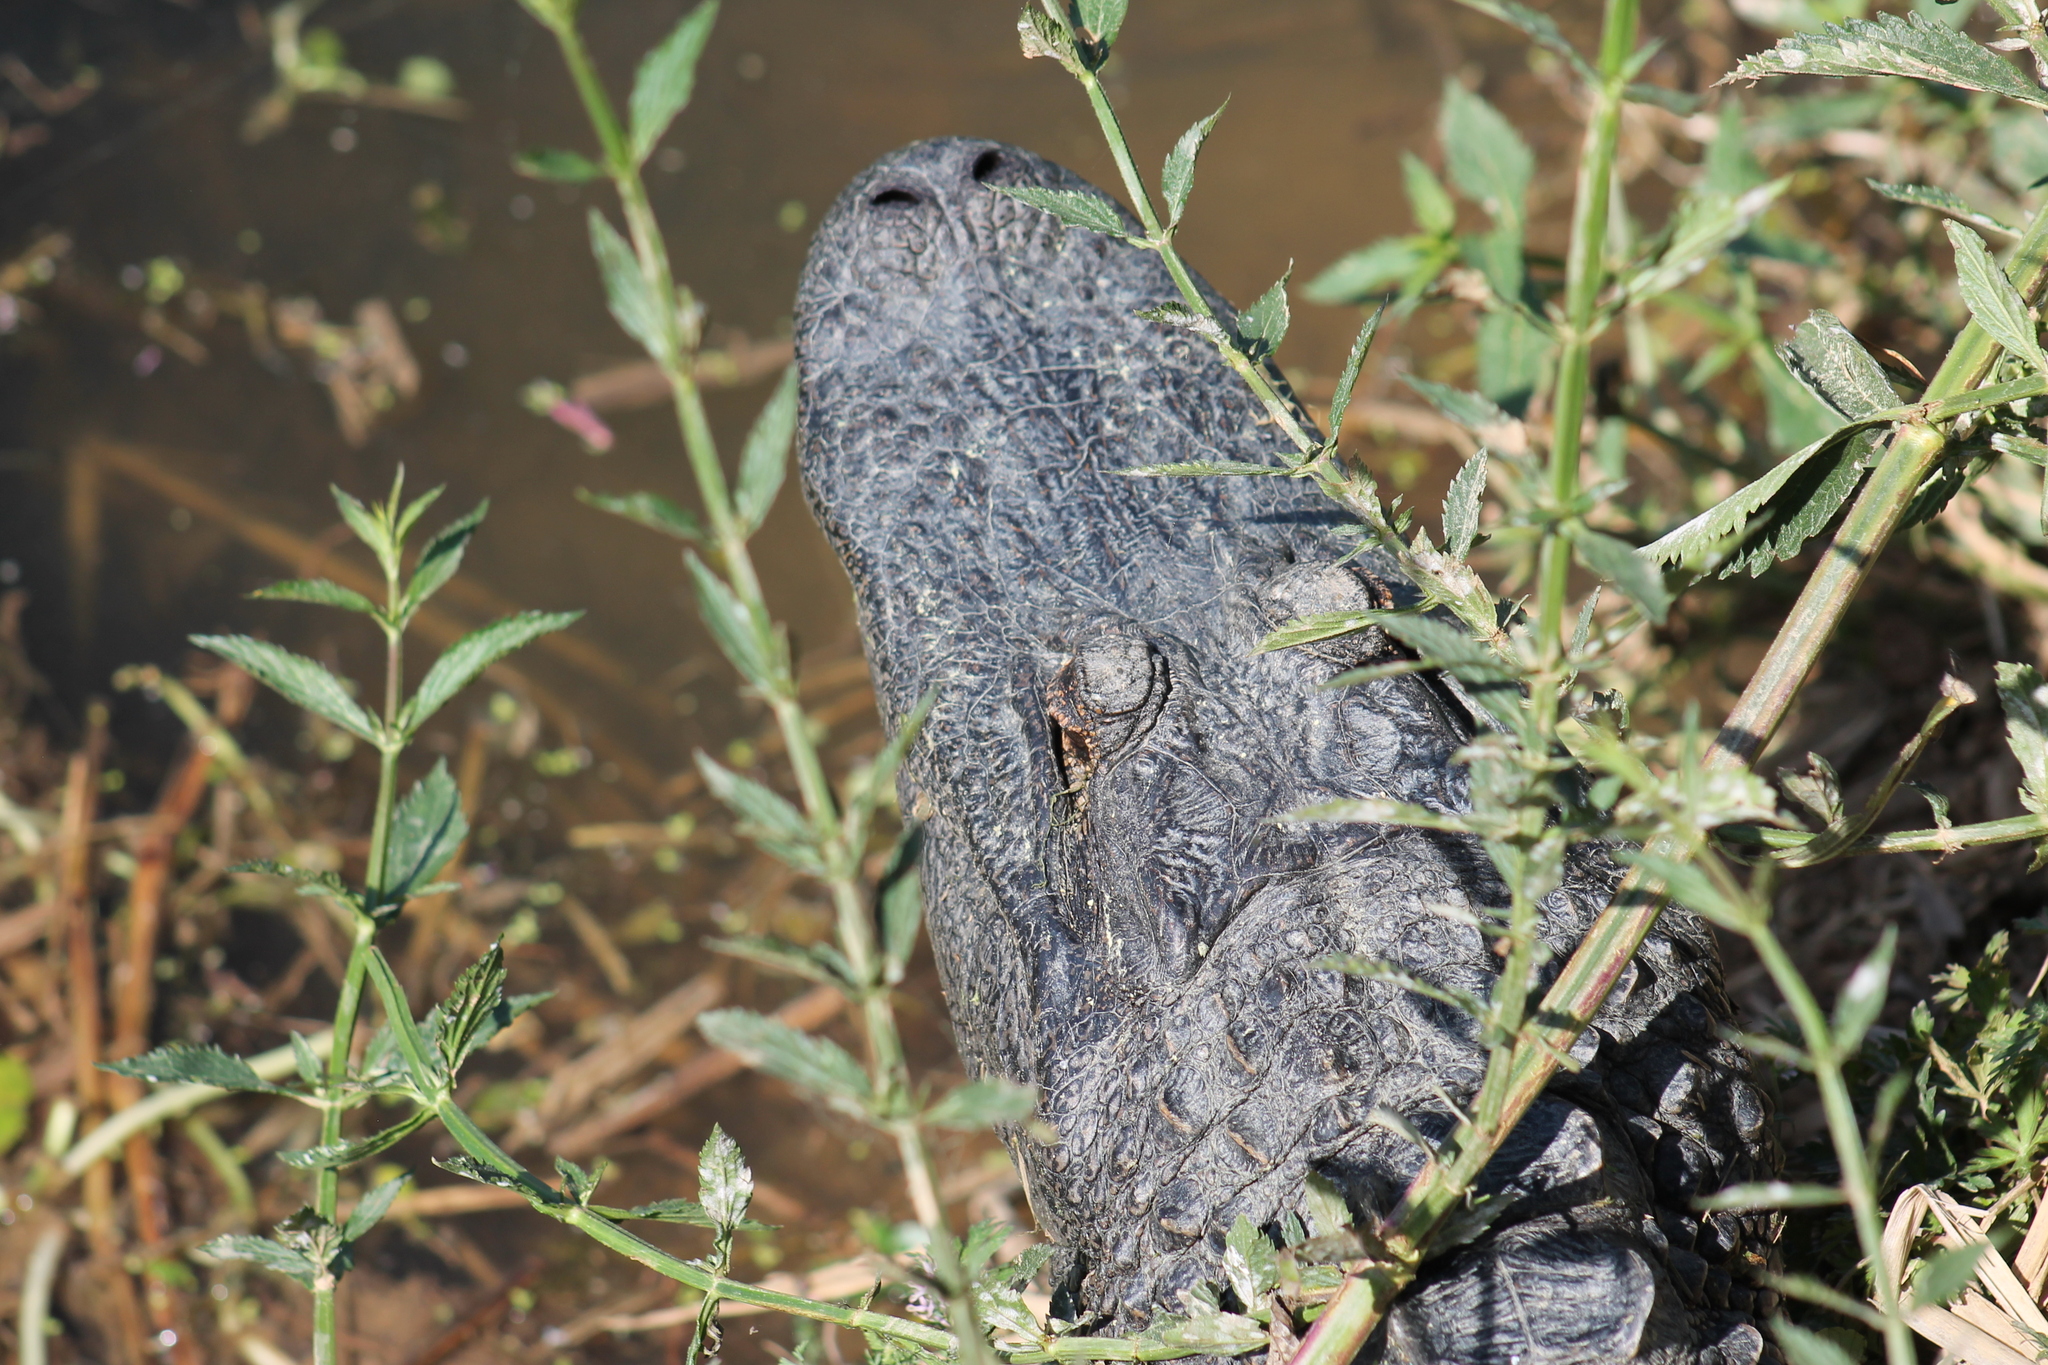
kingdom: Animalia
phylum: Chordata
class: Crocodylia
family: Alligatoridae
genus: Alligator
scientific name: Alligator mississippiensis
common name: American alligator
